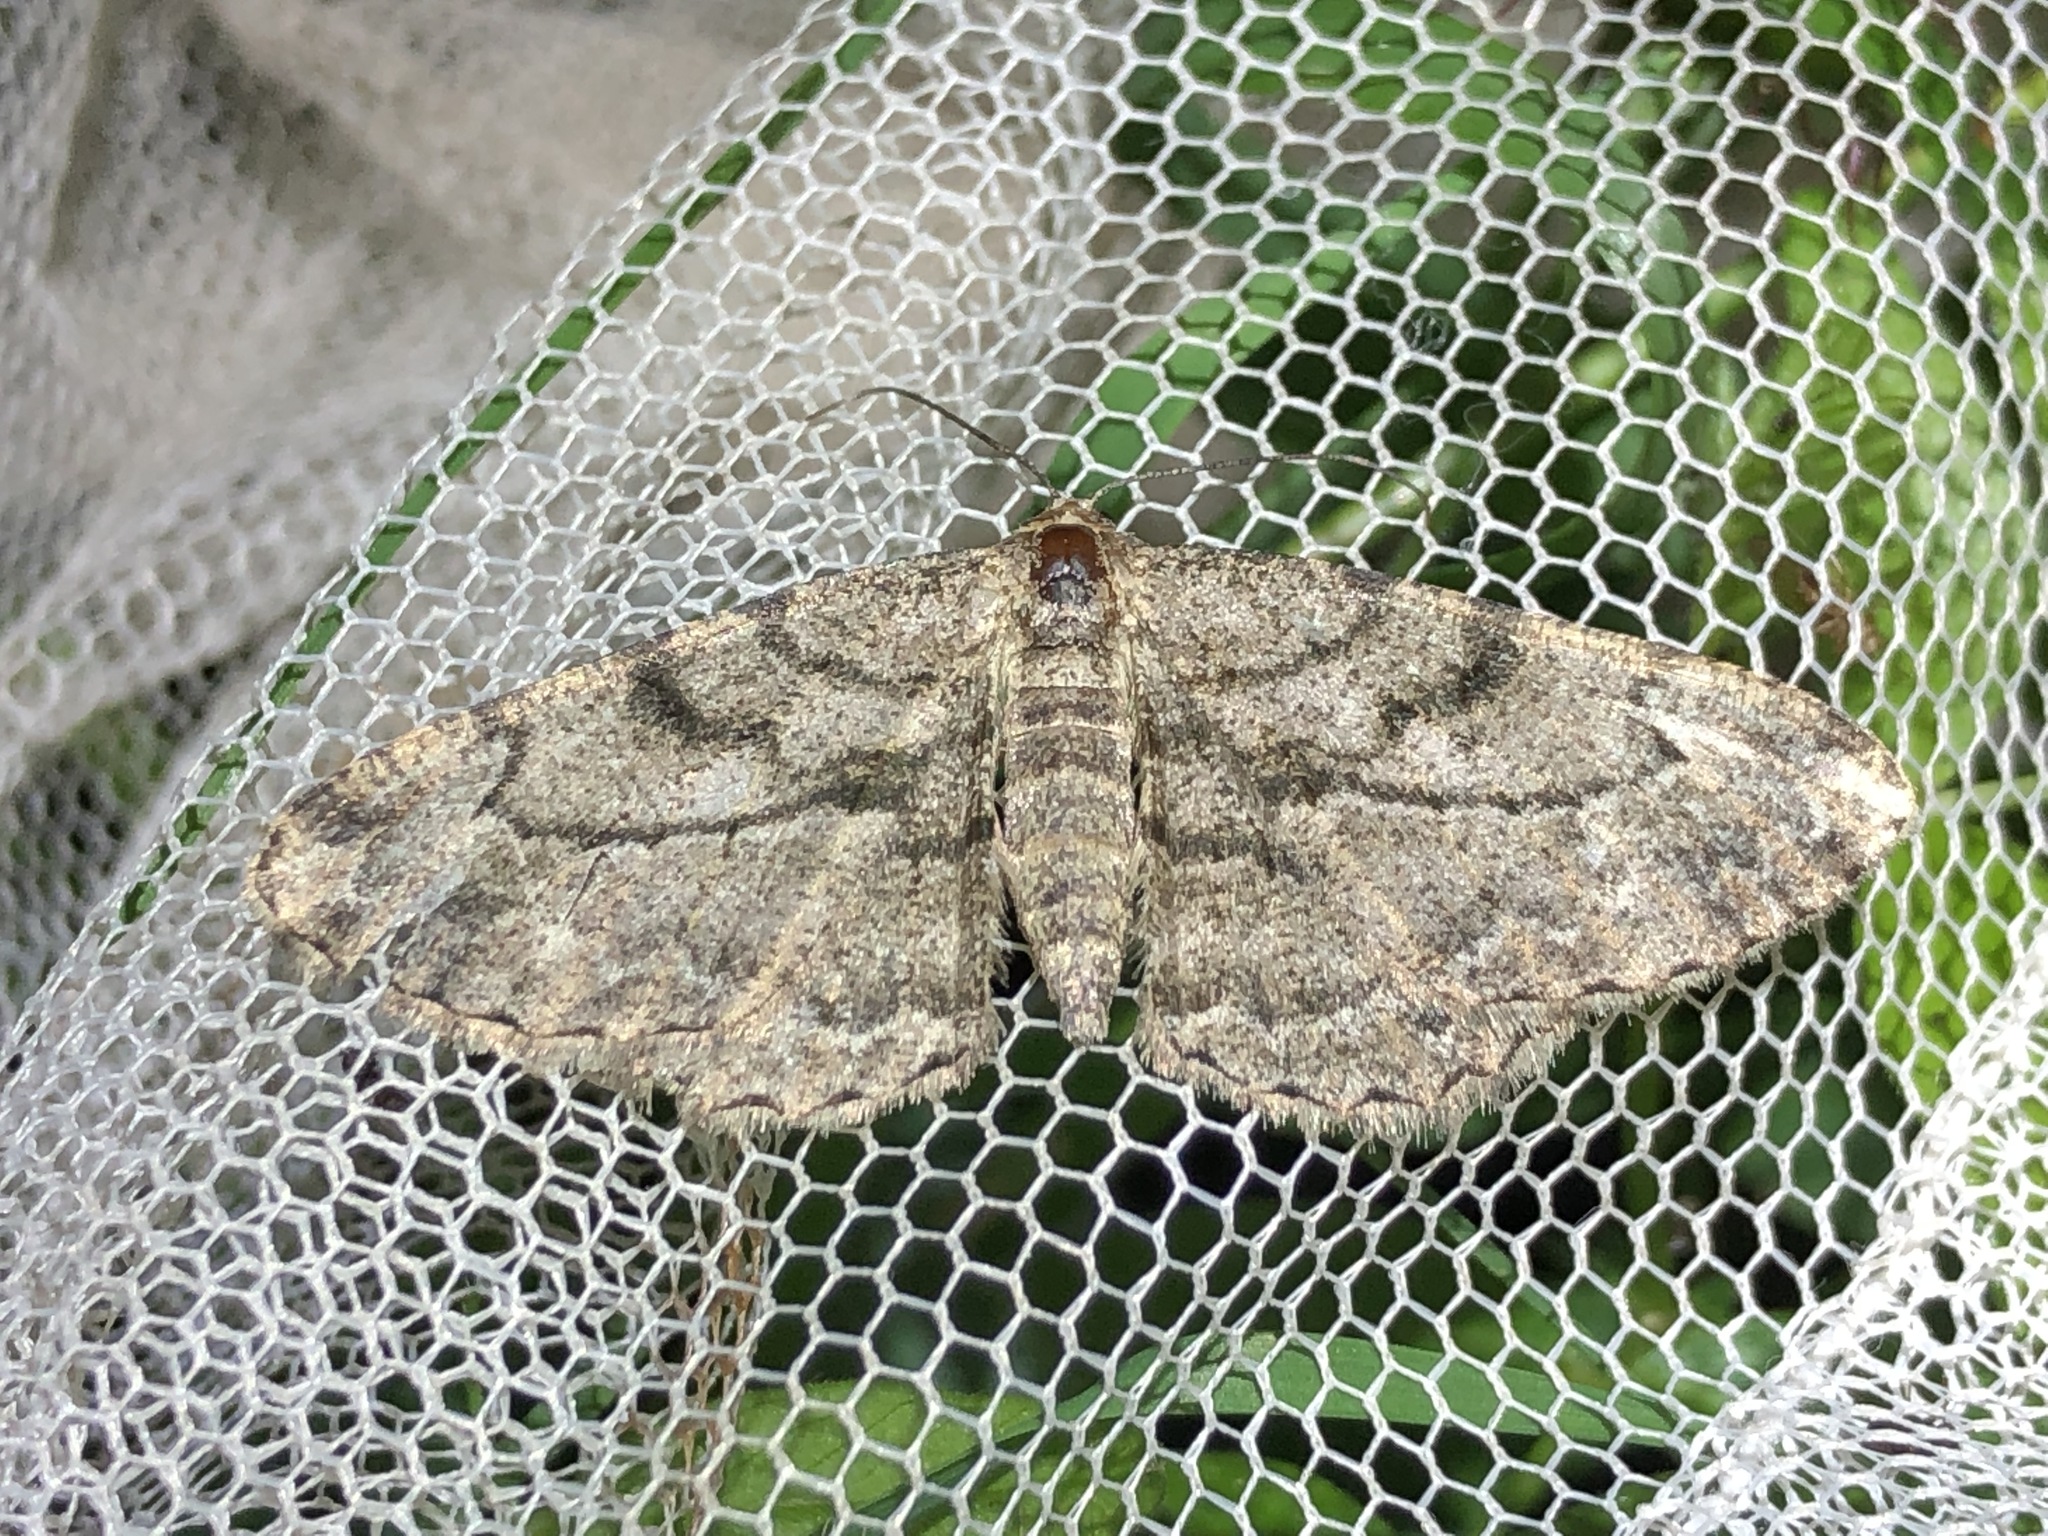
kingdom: Animalia
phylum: Arthropoda
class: Insecta
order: Lepidoptera
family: Geometridae
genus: Peribatodes
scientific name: Peribatodes rhomboidaria
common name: Willow beauty
